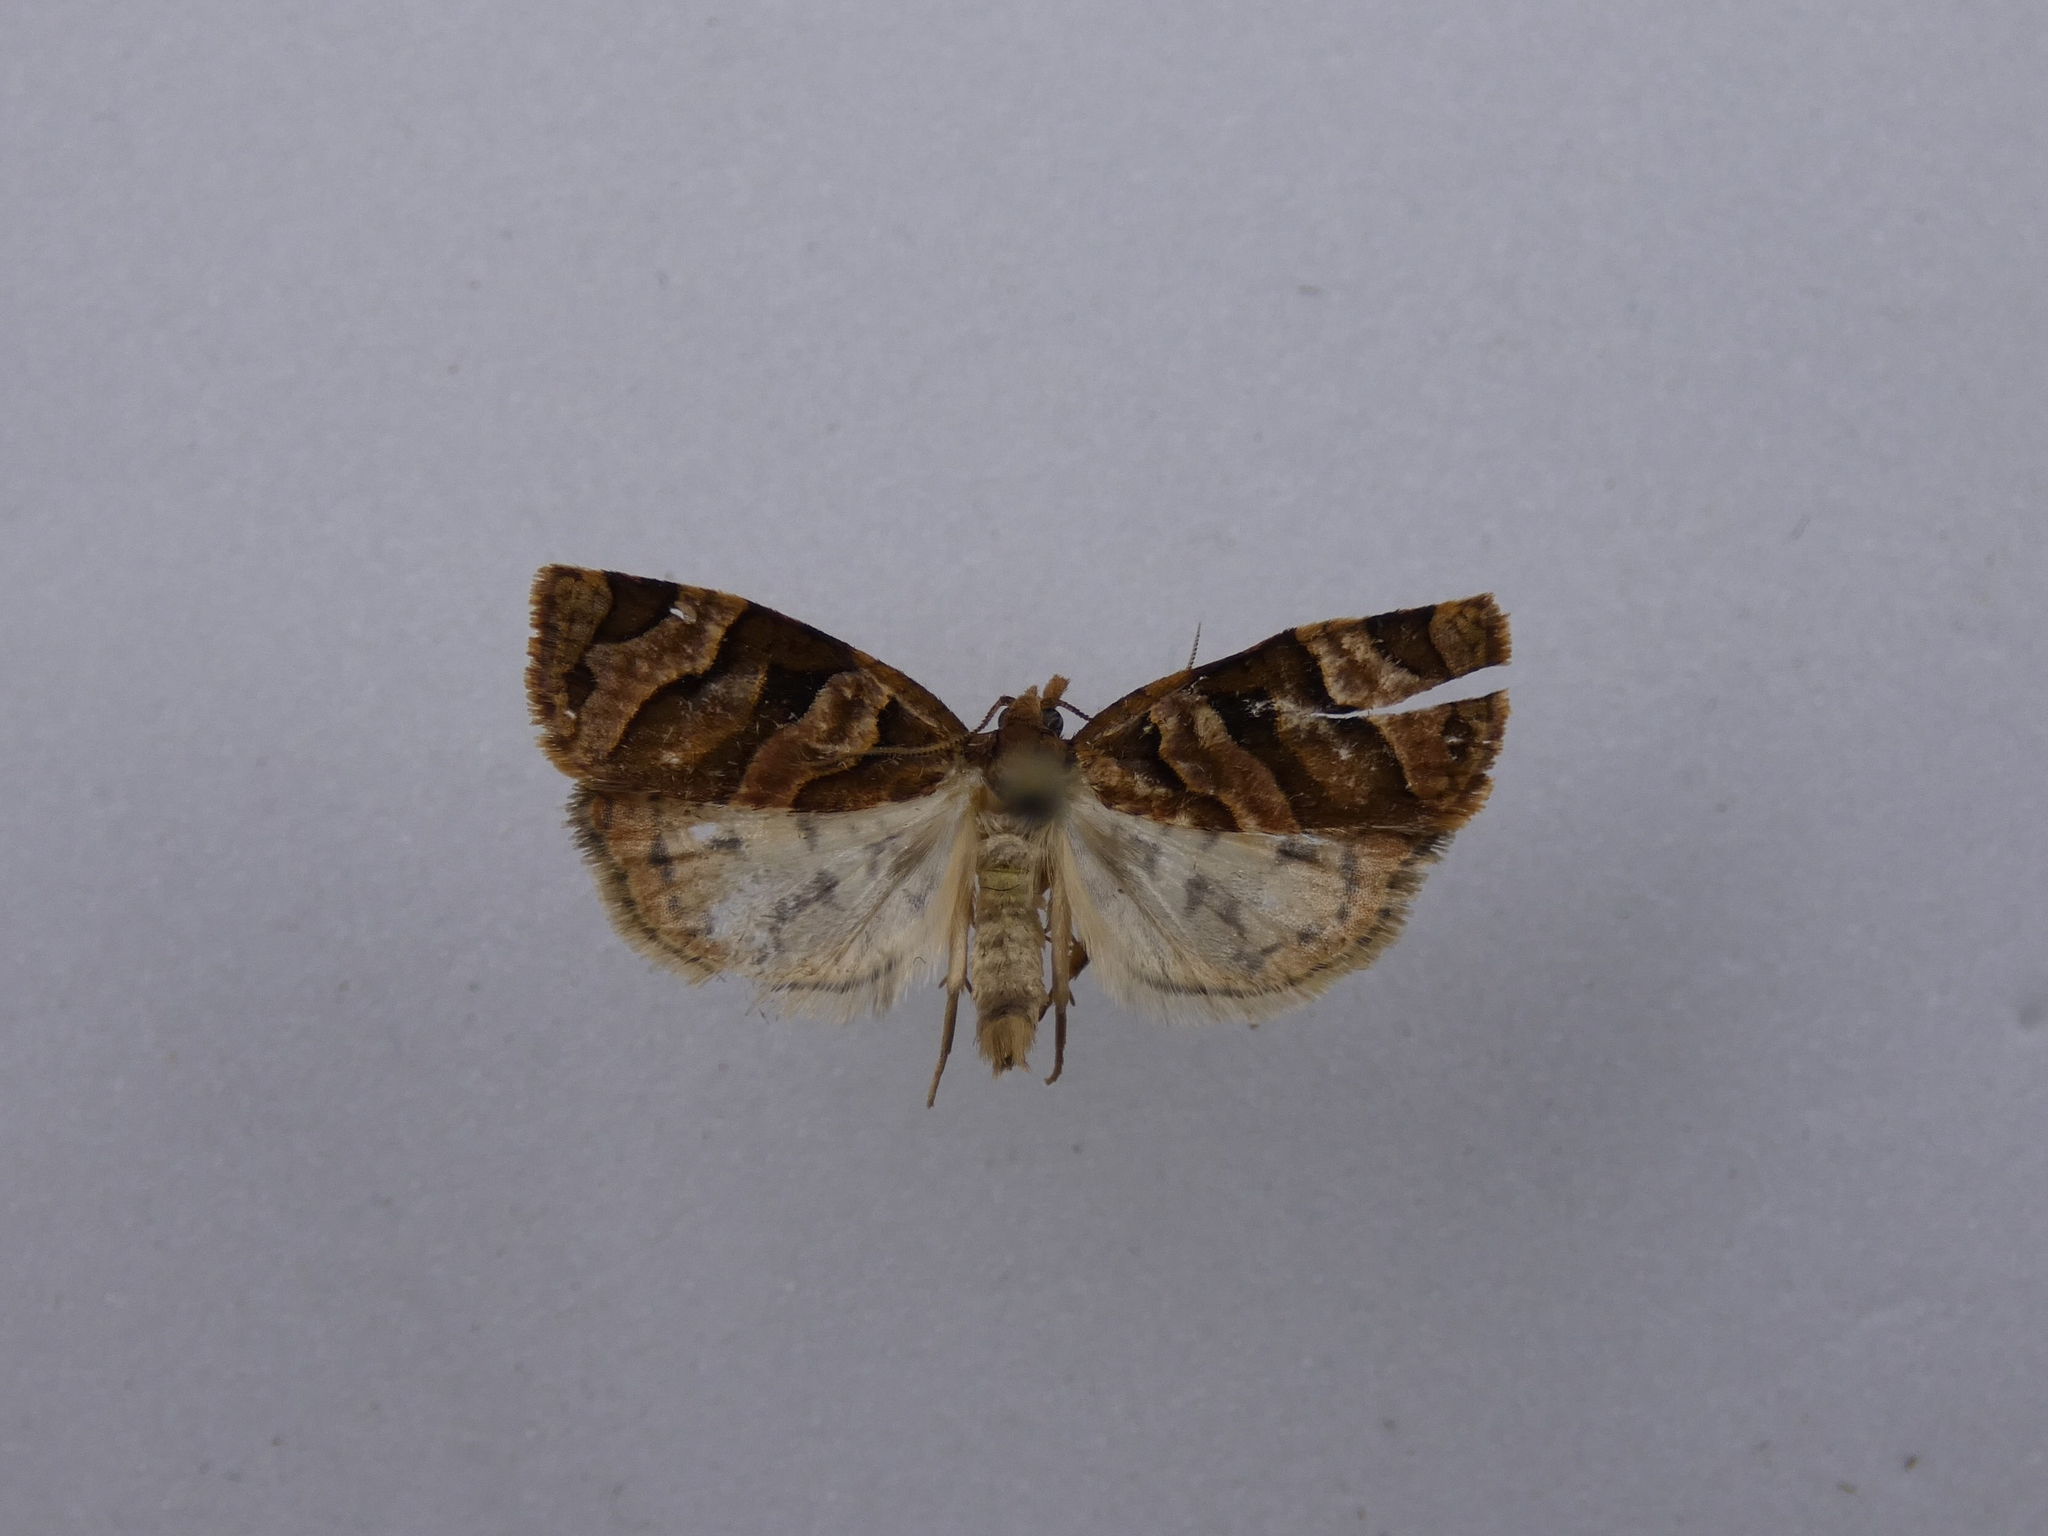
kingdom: Animalia
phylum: Arthropoda
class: Insecta
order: Lepidoptera
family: Tortricidae
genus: Apoctena
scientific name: Apoctena tigris
